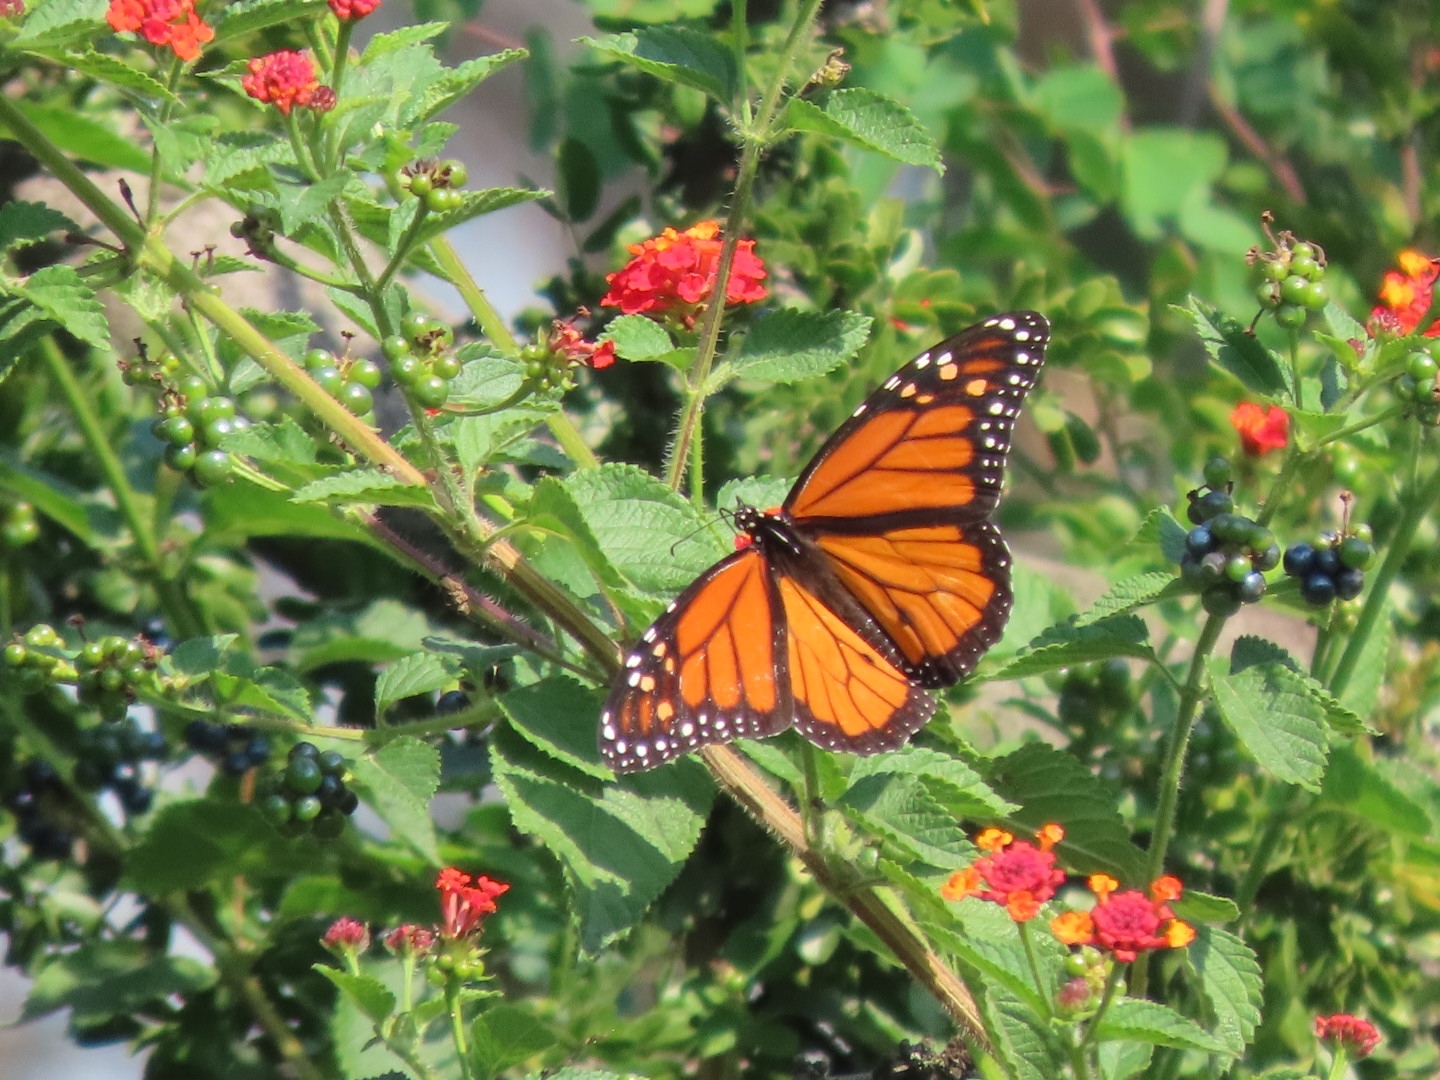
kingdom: Animalia
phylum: Arthropoda
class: Insecta
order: Lepidoptera
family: Nymphalidae
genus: Danaus
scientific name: Danaus plexippus
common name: Monarch
